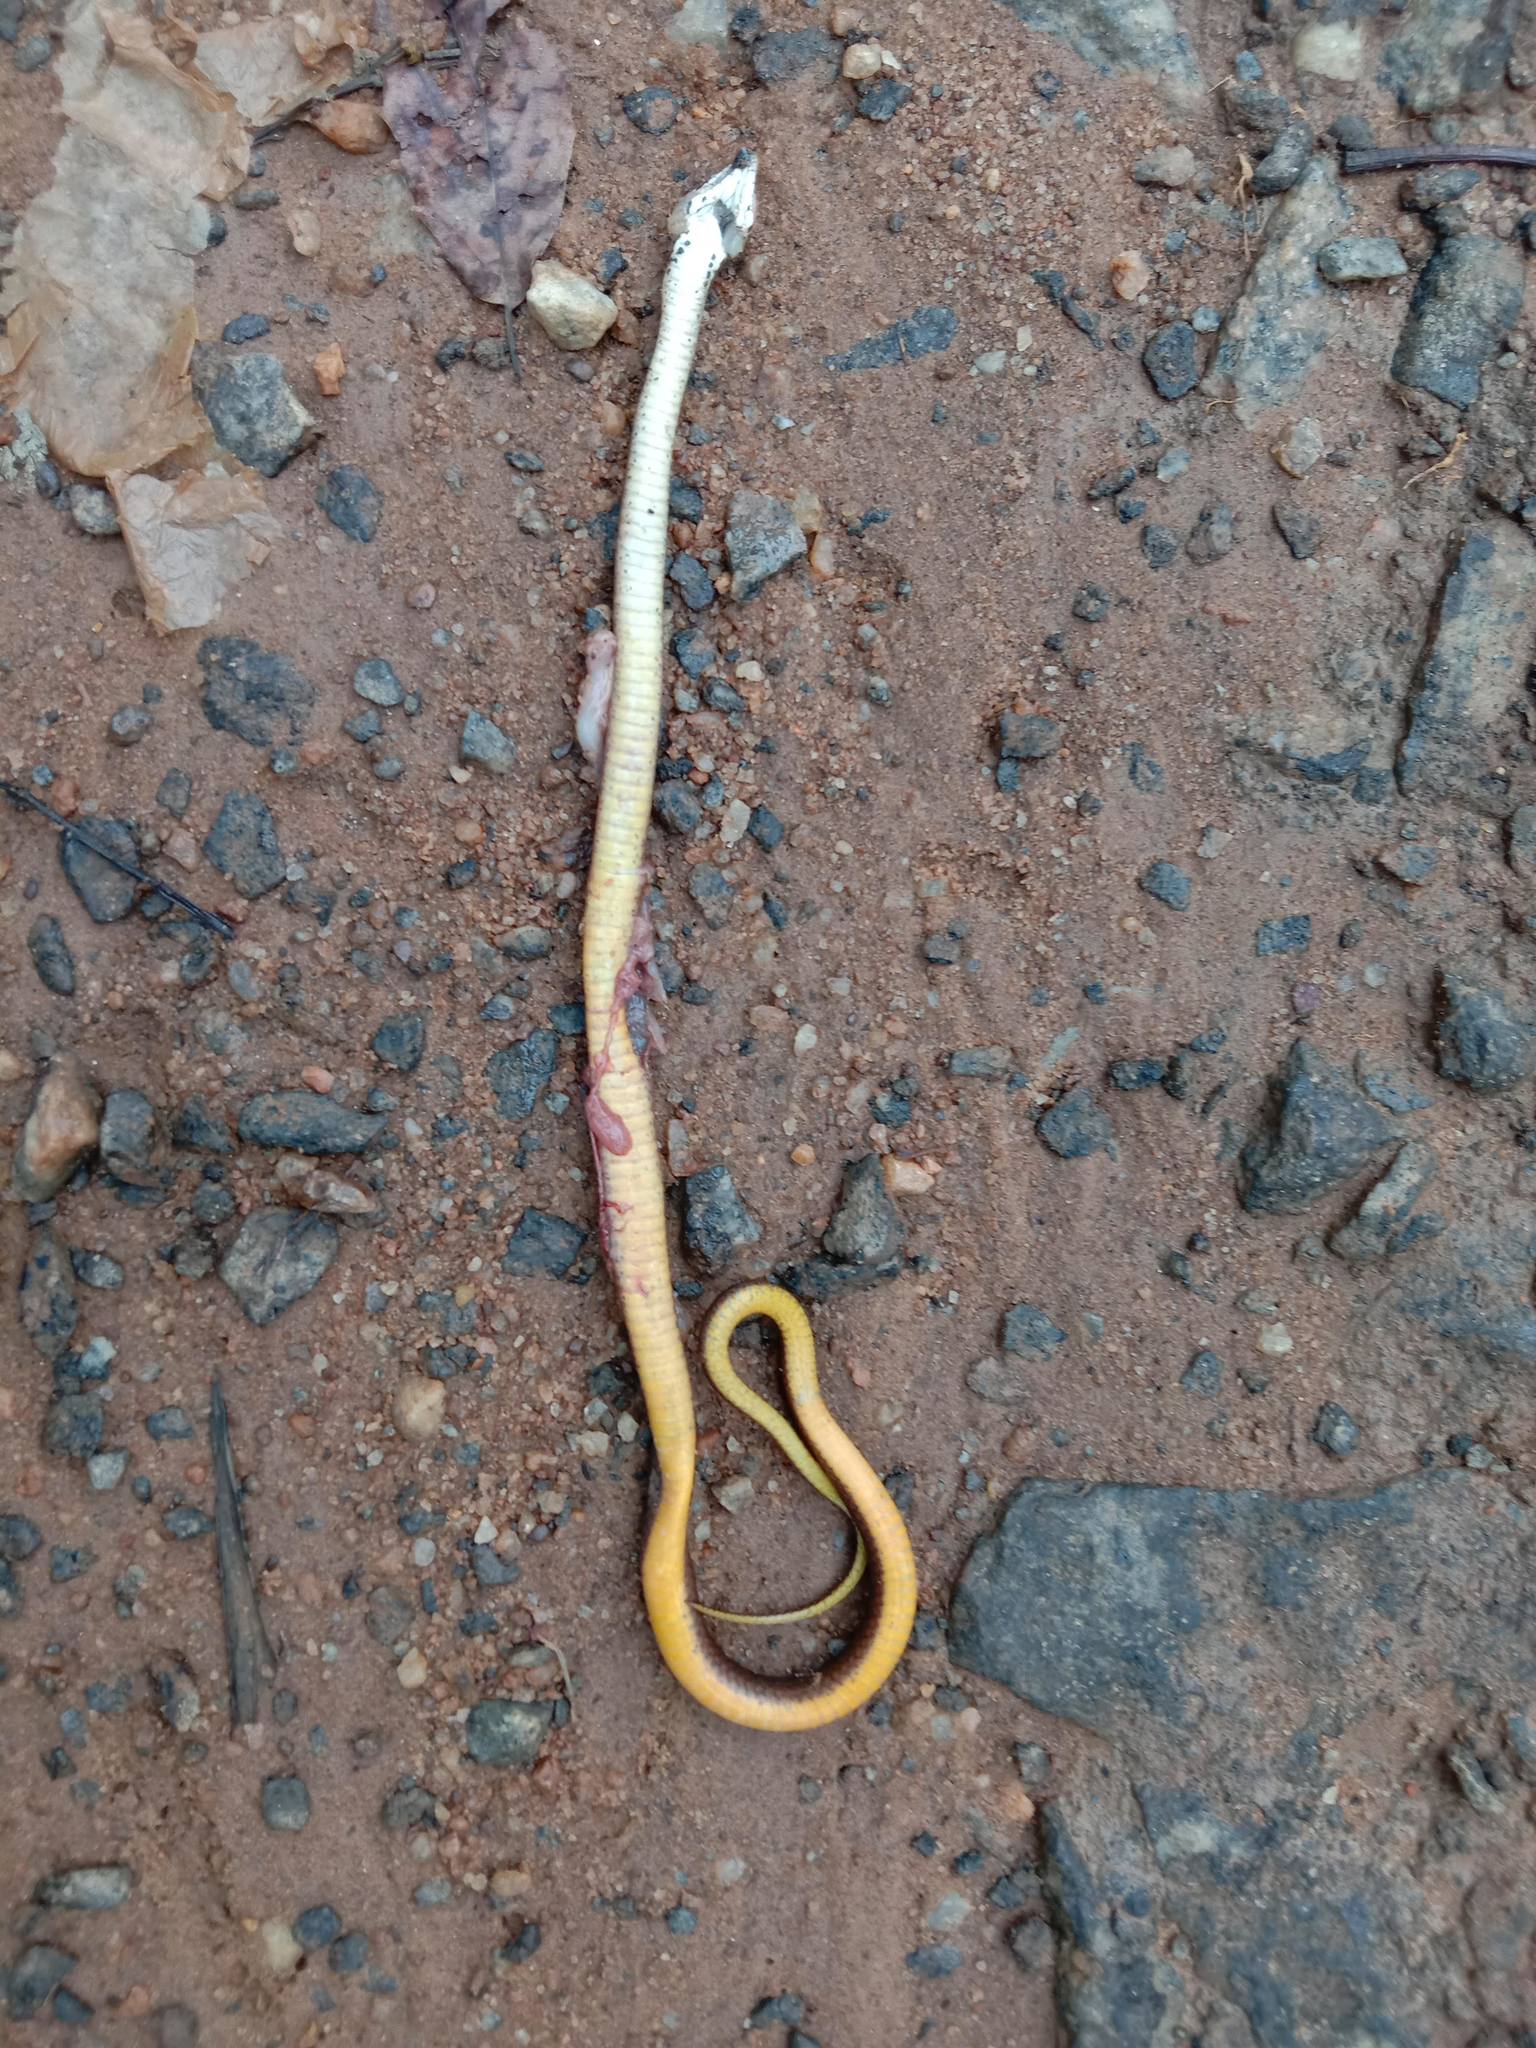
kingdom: Animalia
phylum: Chordata
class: Squamata
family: Colubridae
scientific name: Colubridae
